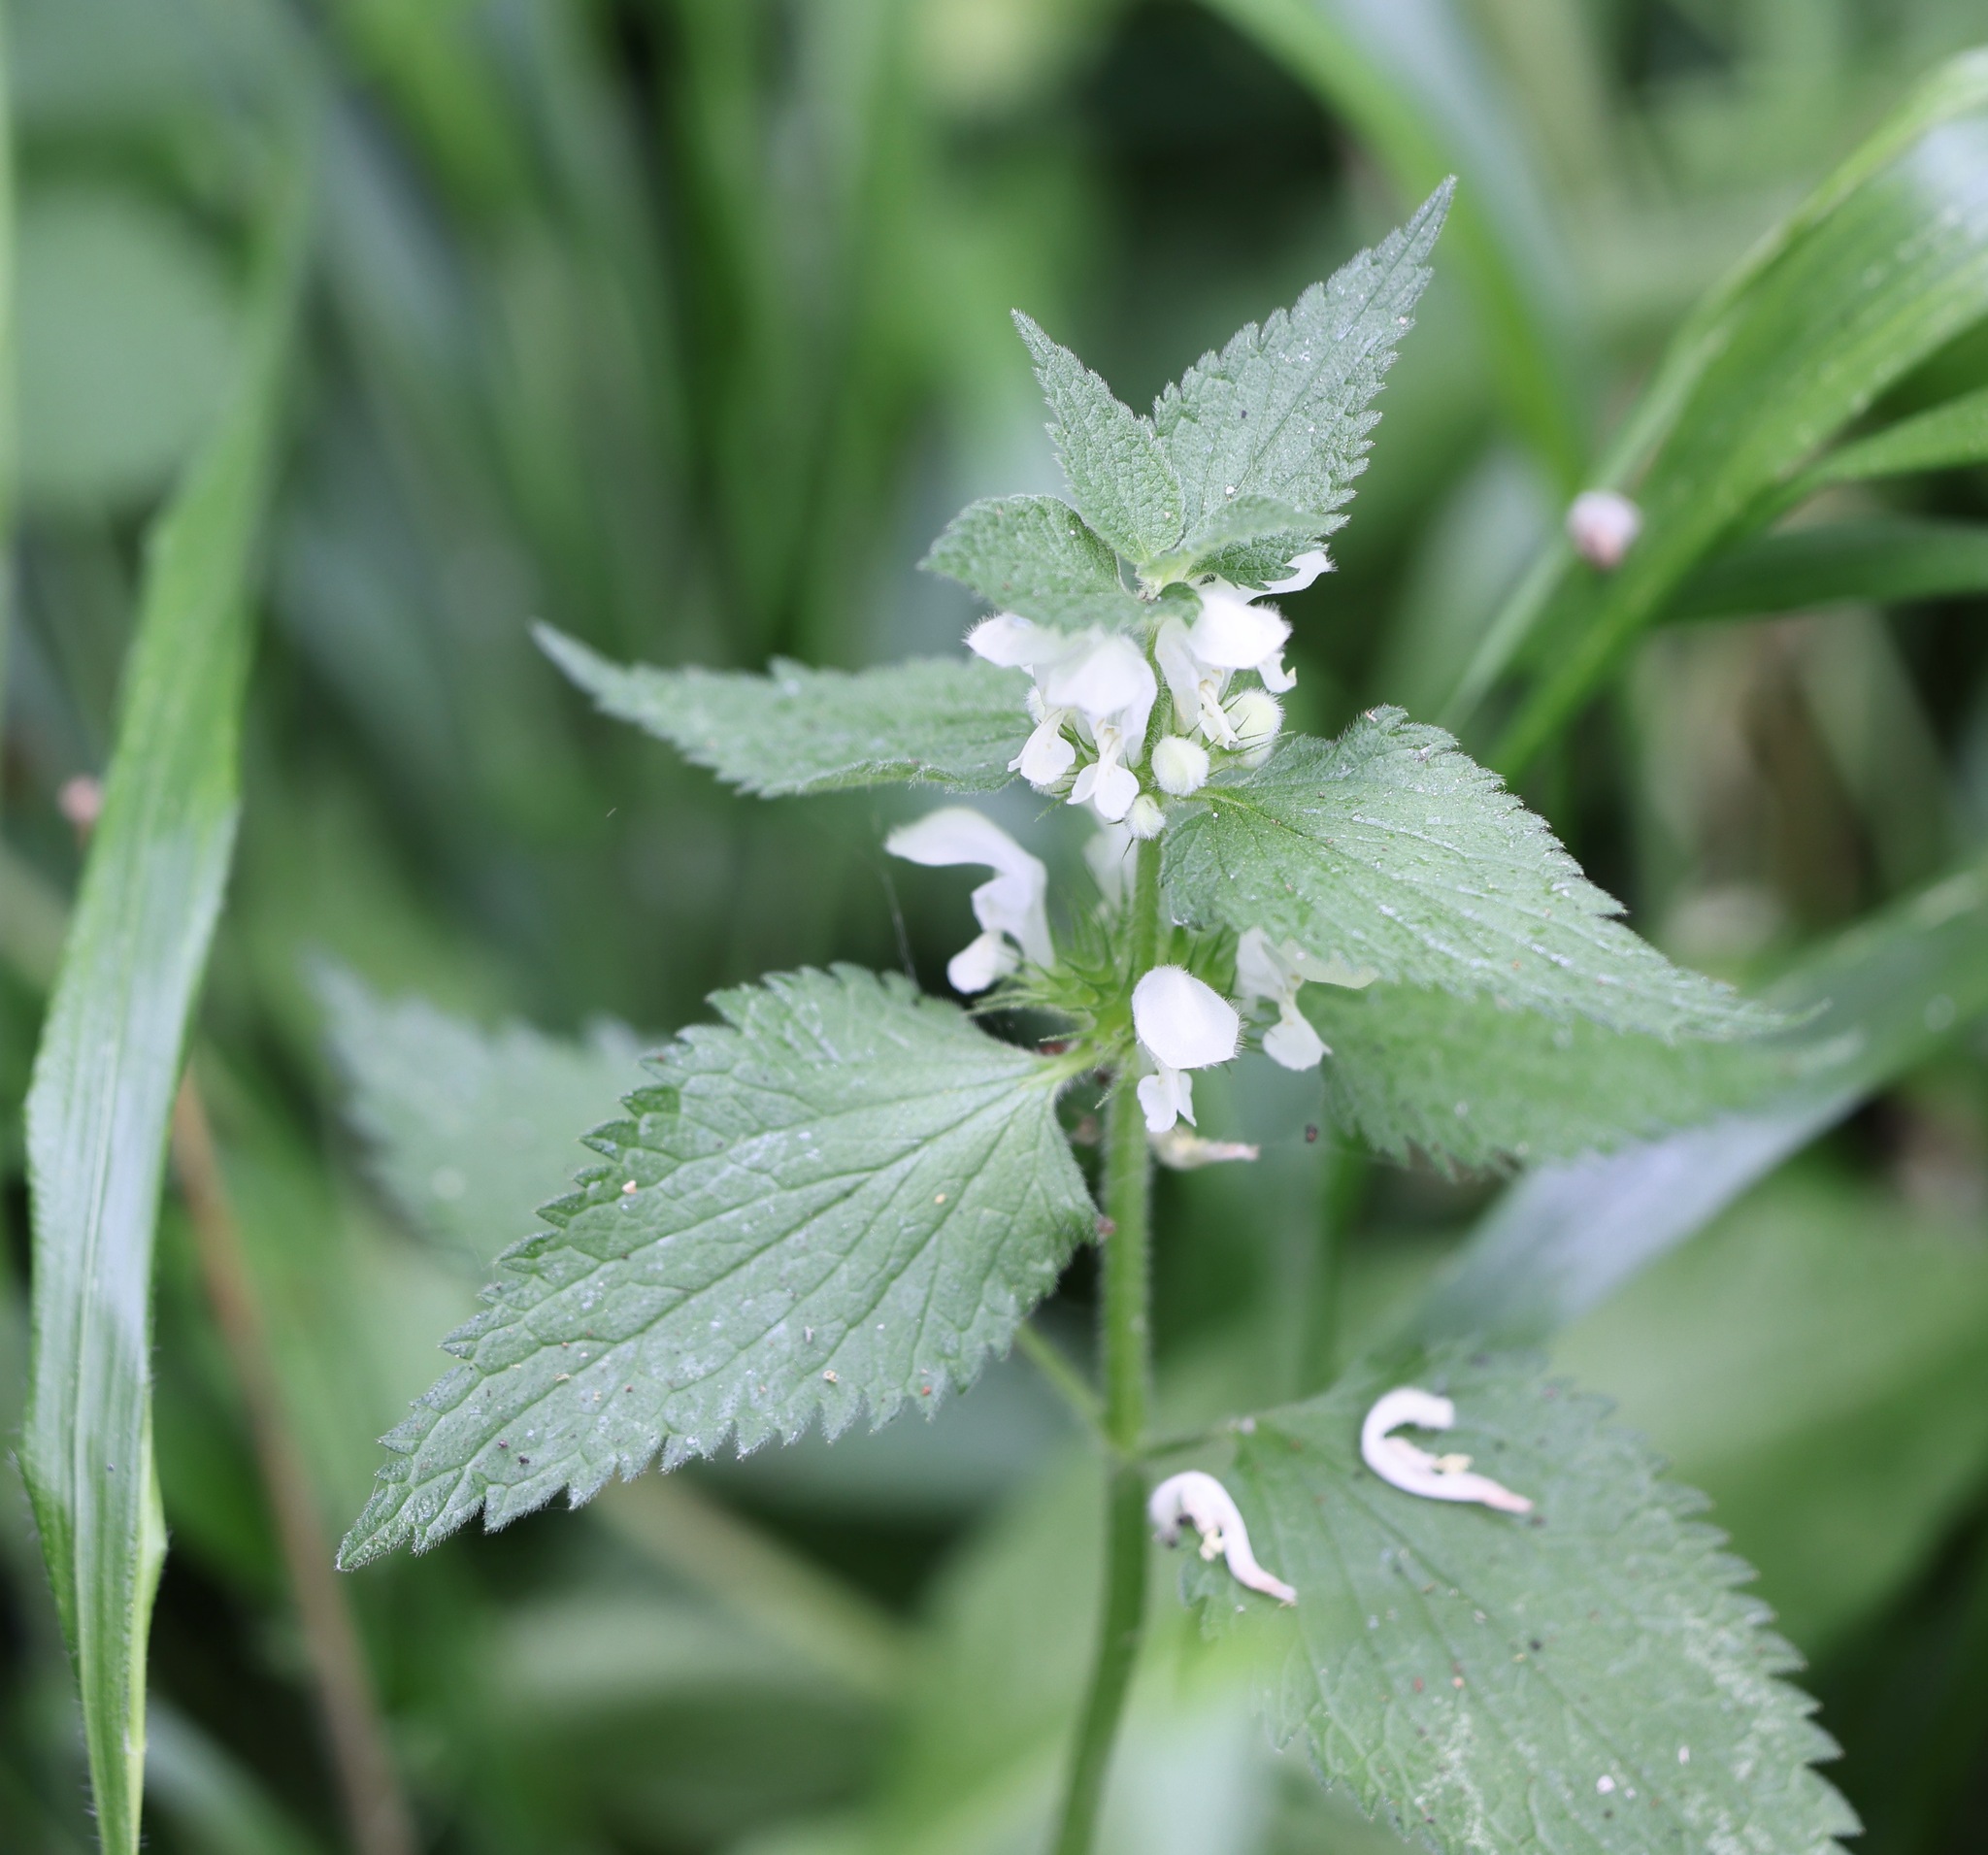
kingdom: Plantae
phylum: Tracheophyta
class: Magnoliopsida
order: Lamiales
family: Lamiaceae
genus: Lamium
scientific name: Lamium album
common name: White dead-nettle
